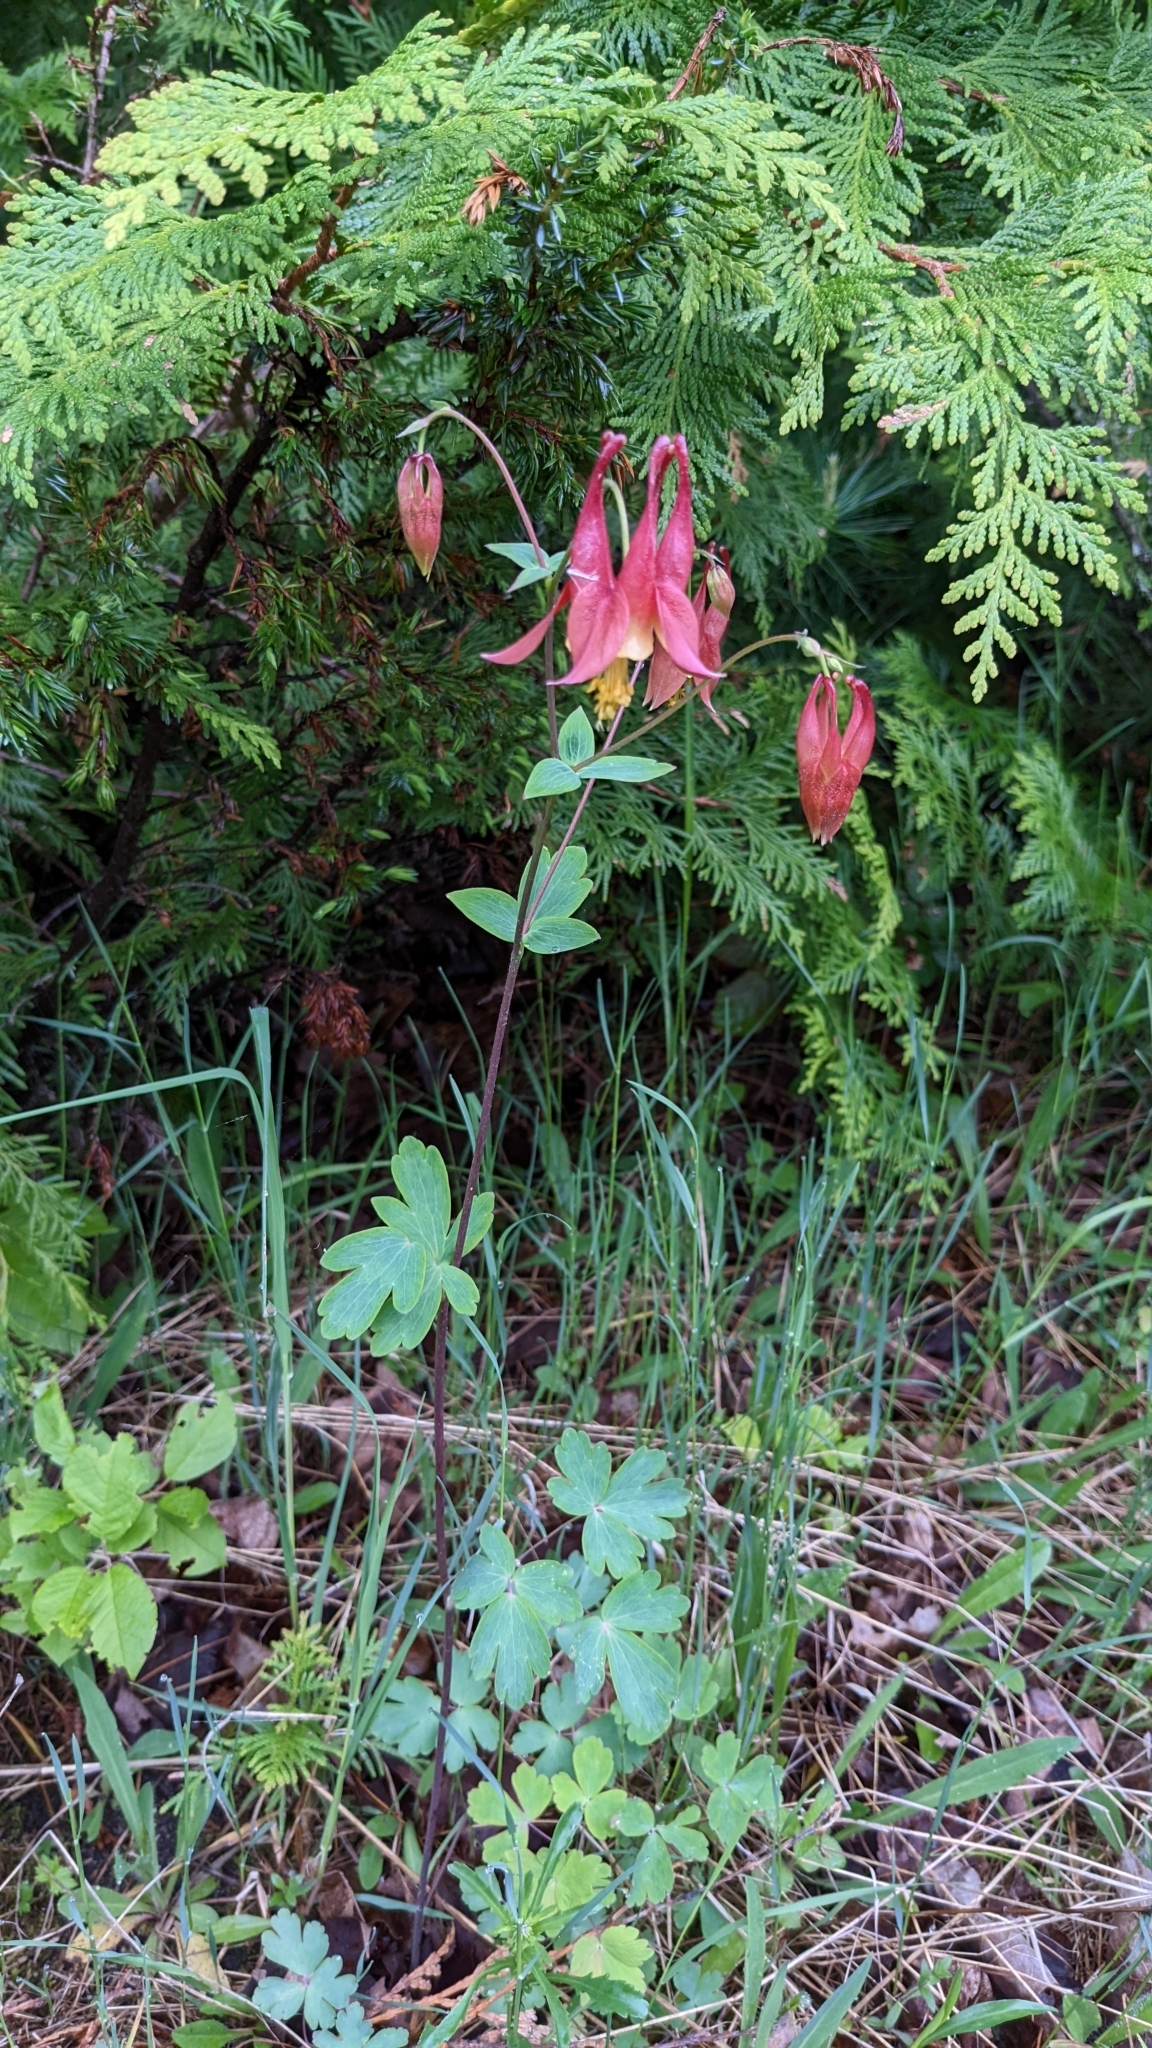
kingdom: Plantae
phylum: Tracheophyta
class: Magnoliopsida
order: Ranunculales
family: Ranunculaceae
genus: Aquilegia
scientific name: Aquilegia canadensis
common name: American columbine
